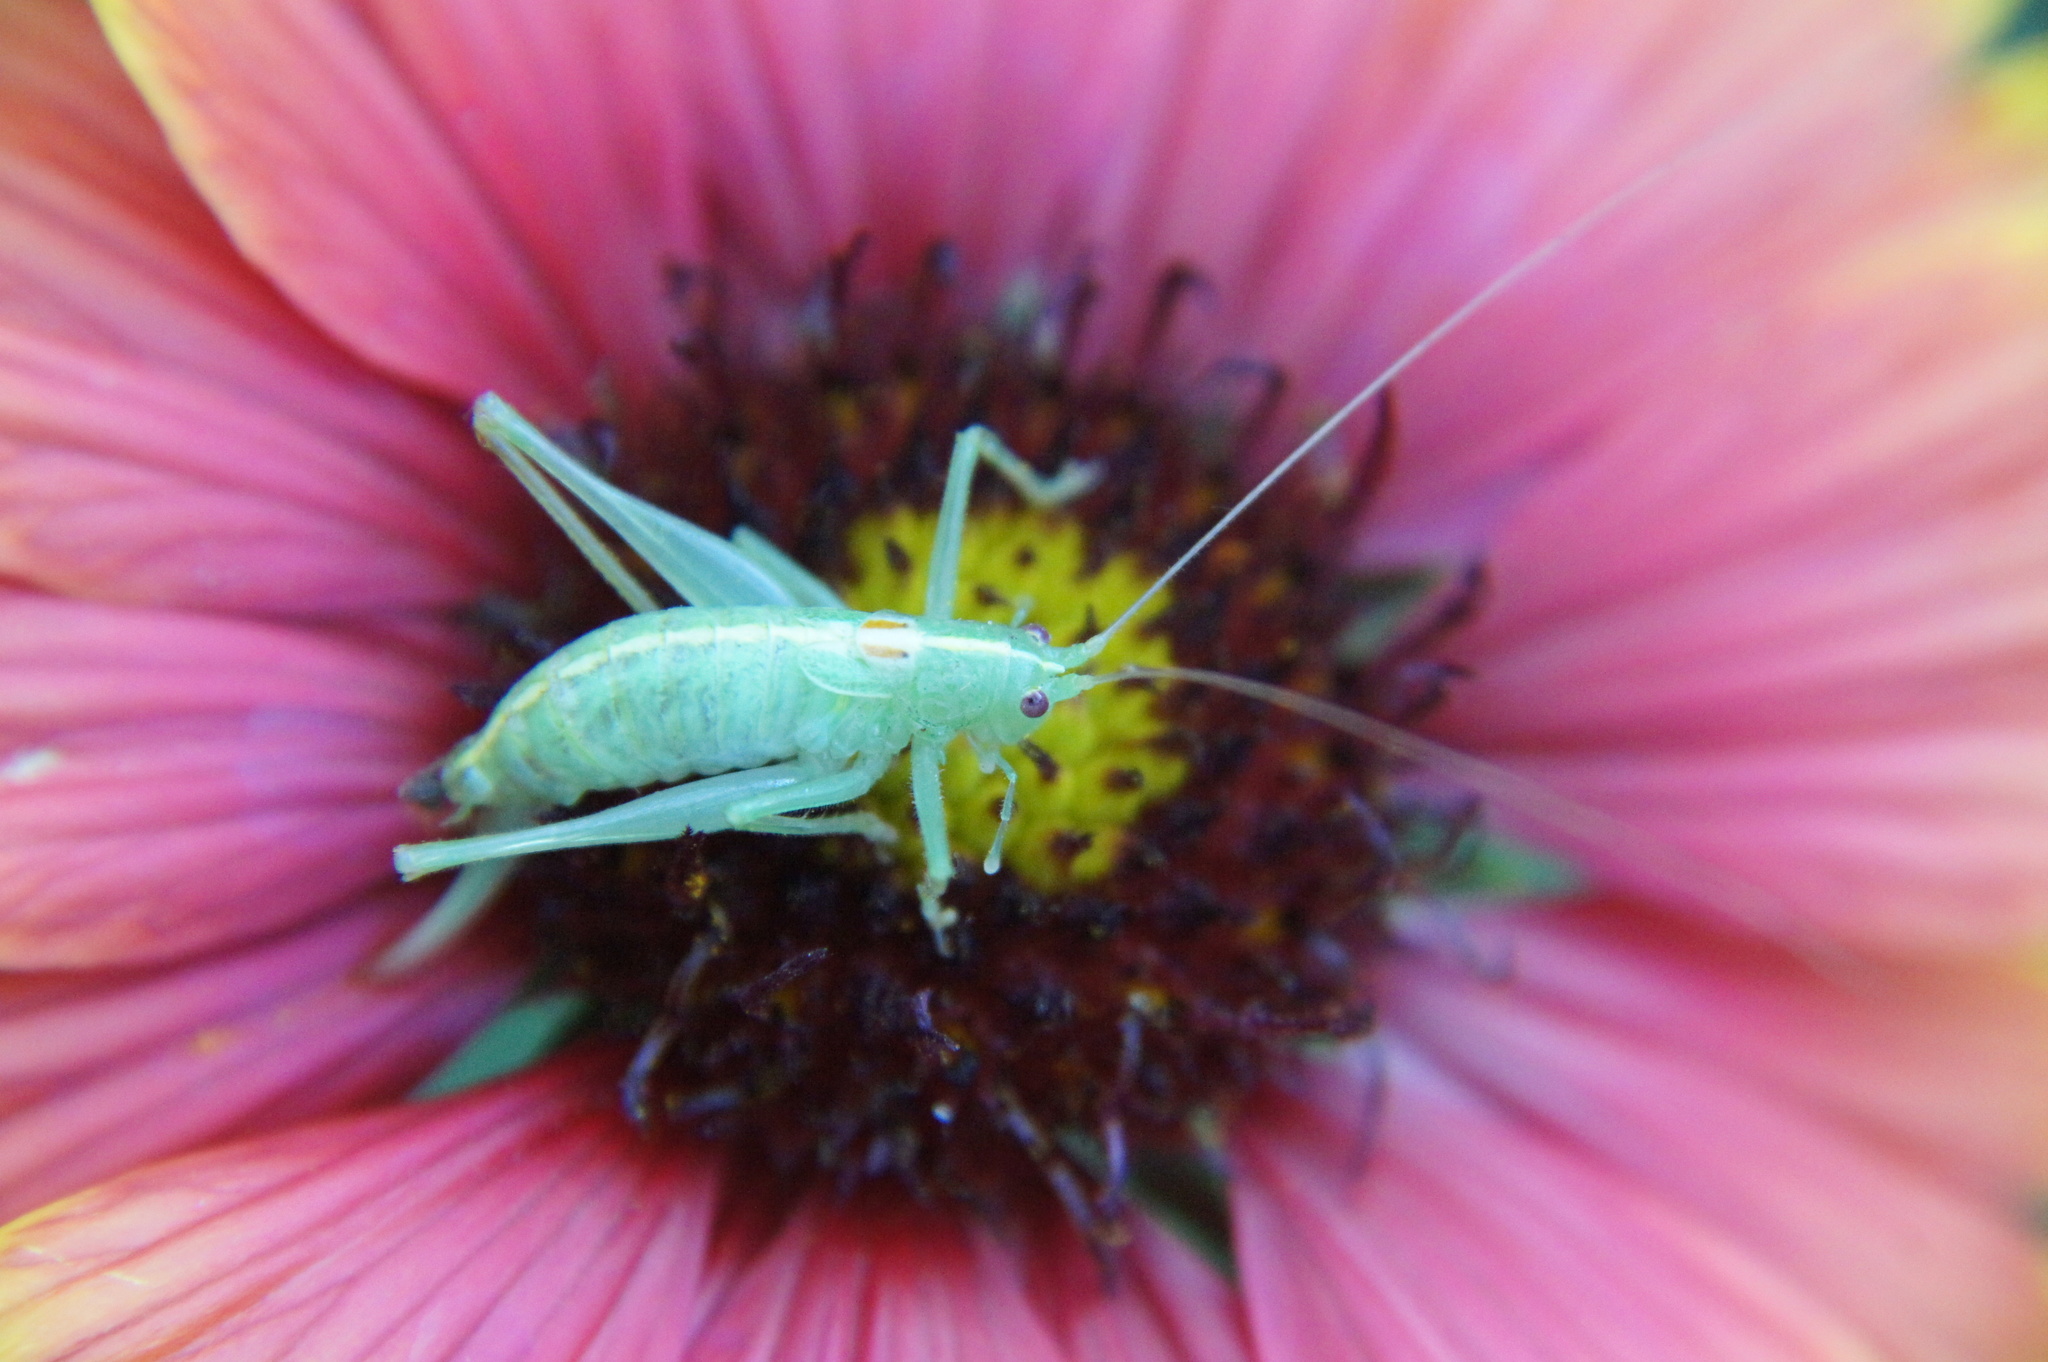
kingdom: Animalia
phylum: Arthropoda
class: Insecta
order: Orthoptera
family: Tettigoniidae
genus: Meconema
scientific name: Meconema meridionale
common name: Southern oak bush-cricket
